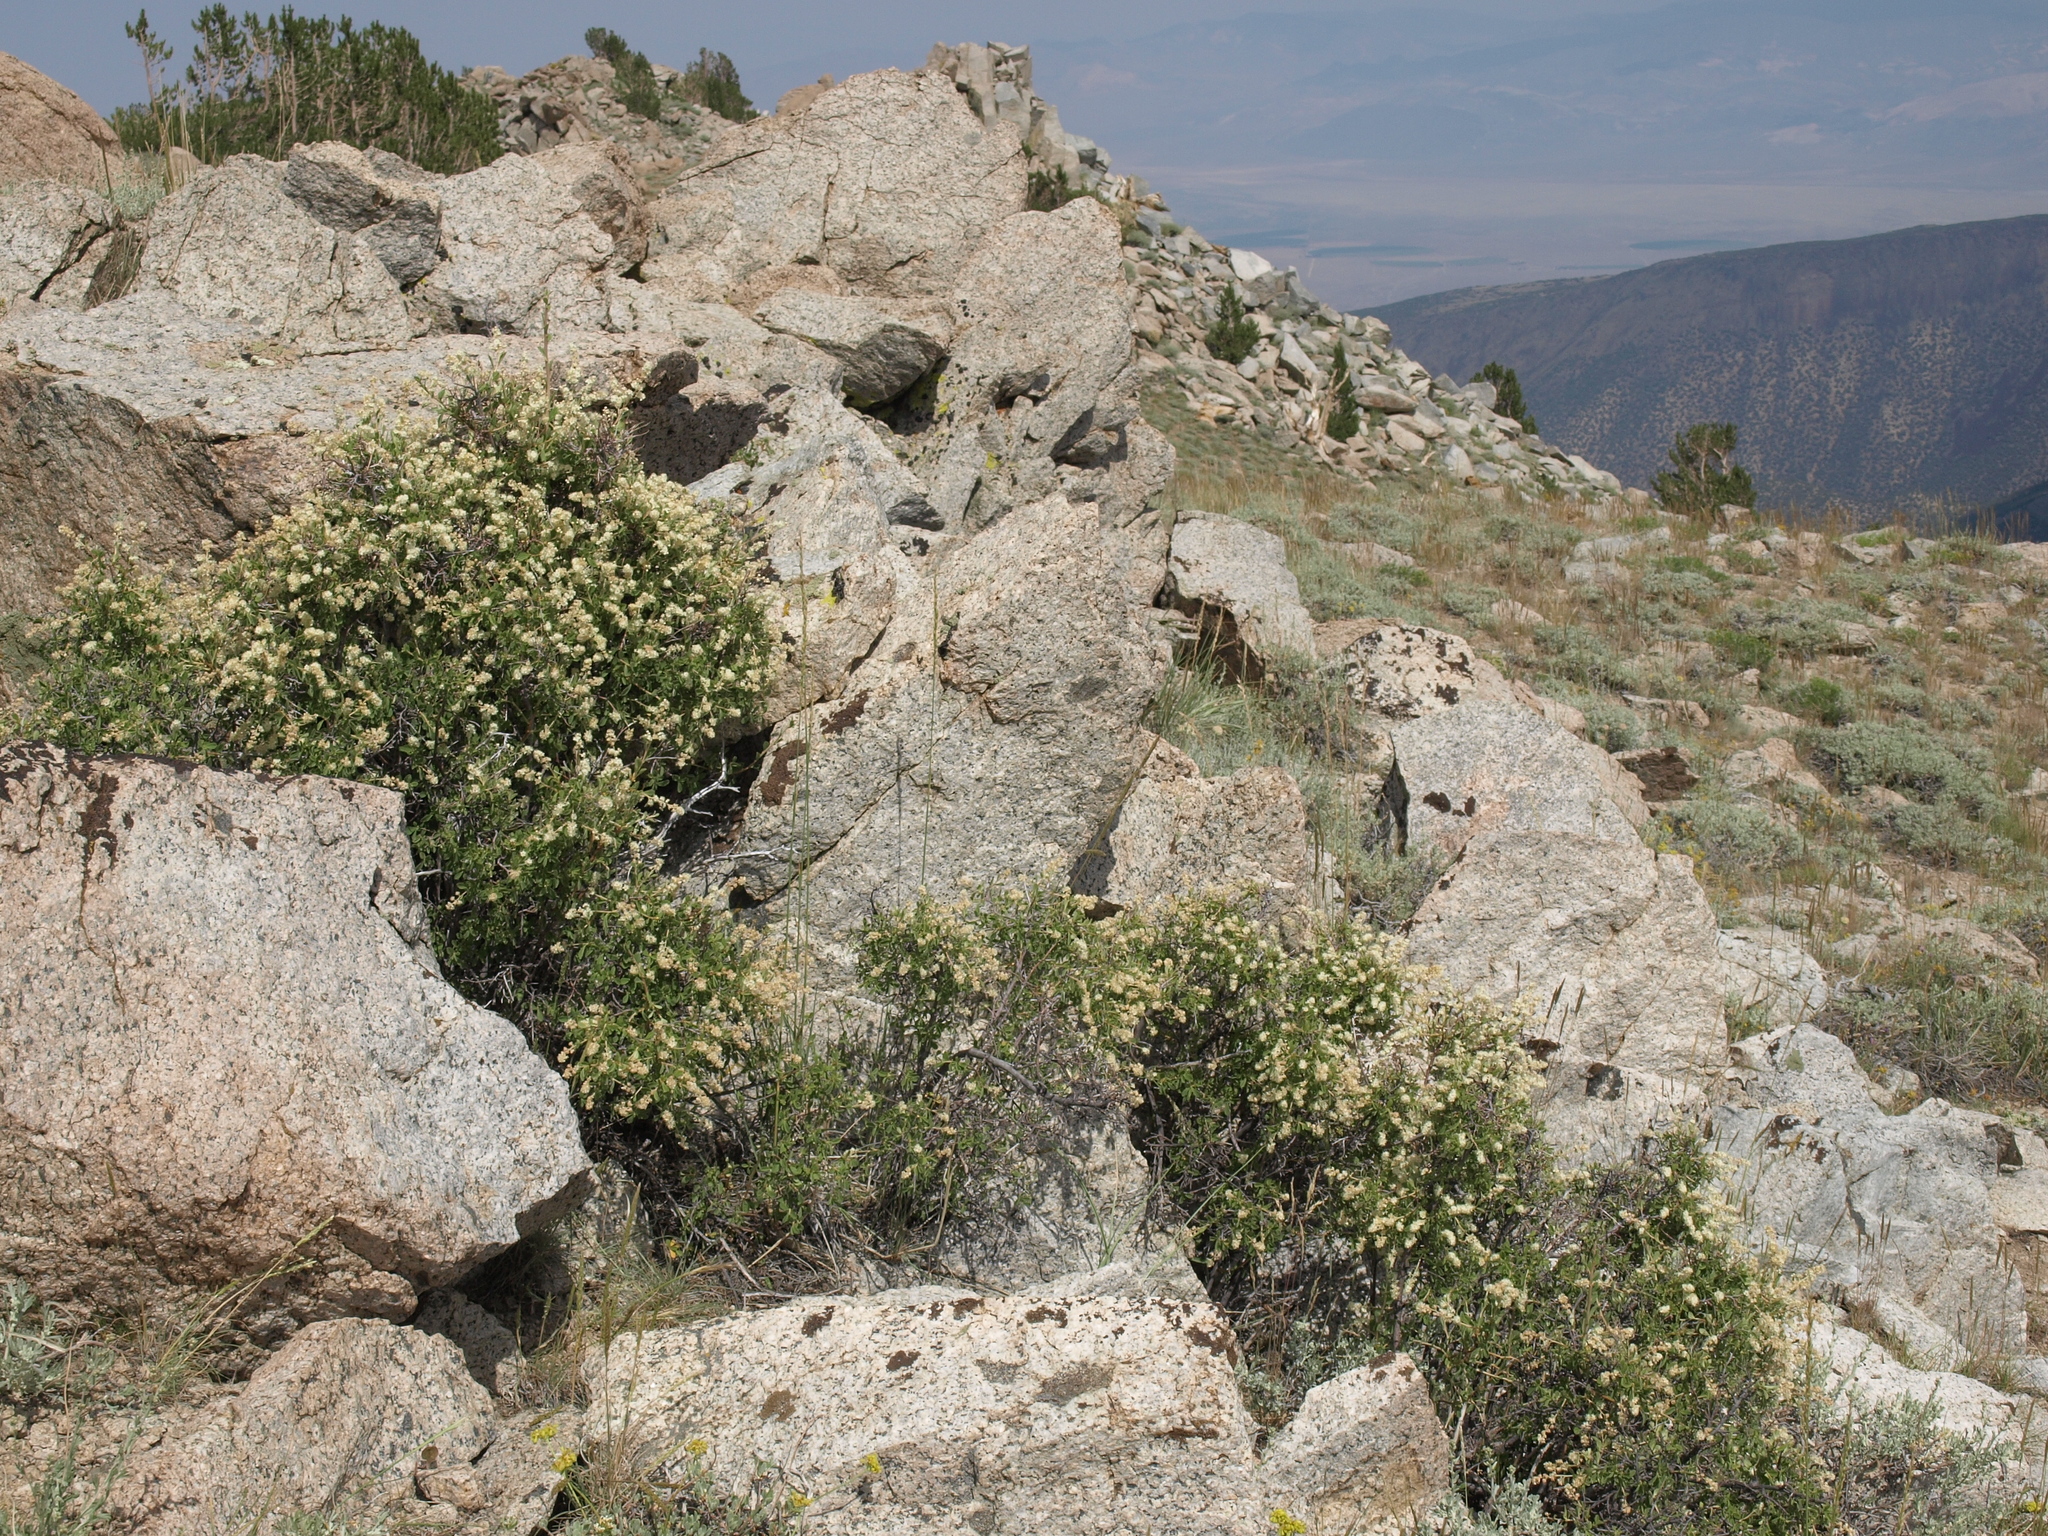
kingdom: Plantae
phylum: Tracheophyta
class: Magnoliopsida
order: Rosales
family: Rosaceae
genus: Holodiscus
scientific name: Holodiscus discolor
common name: Oceanspray
